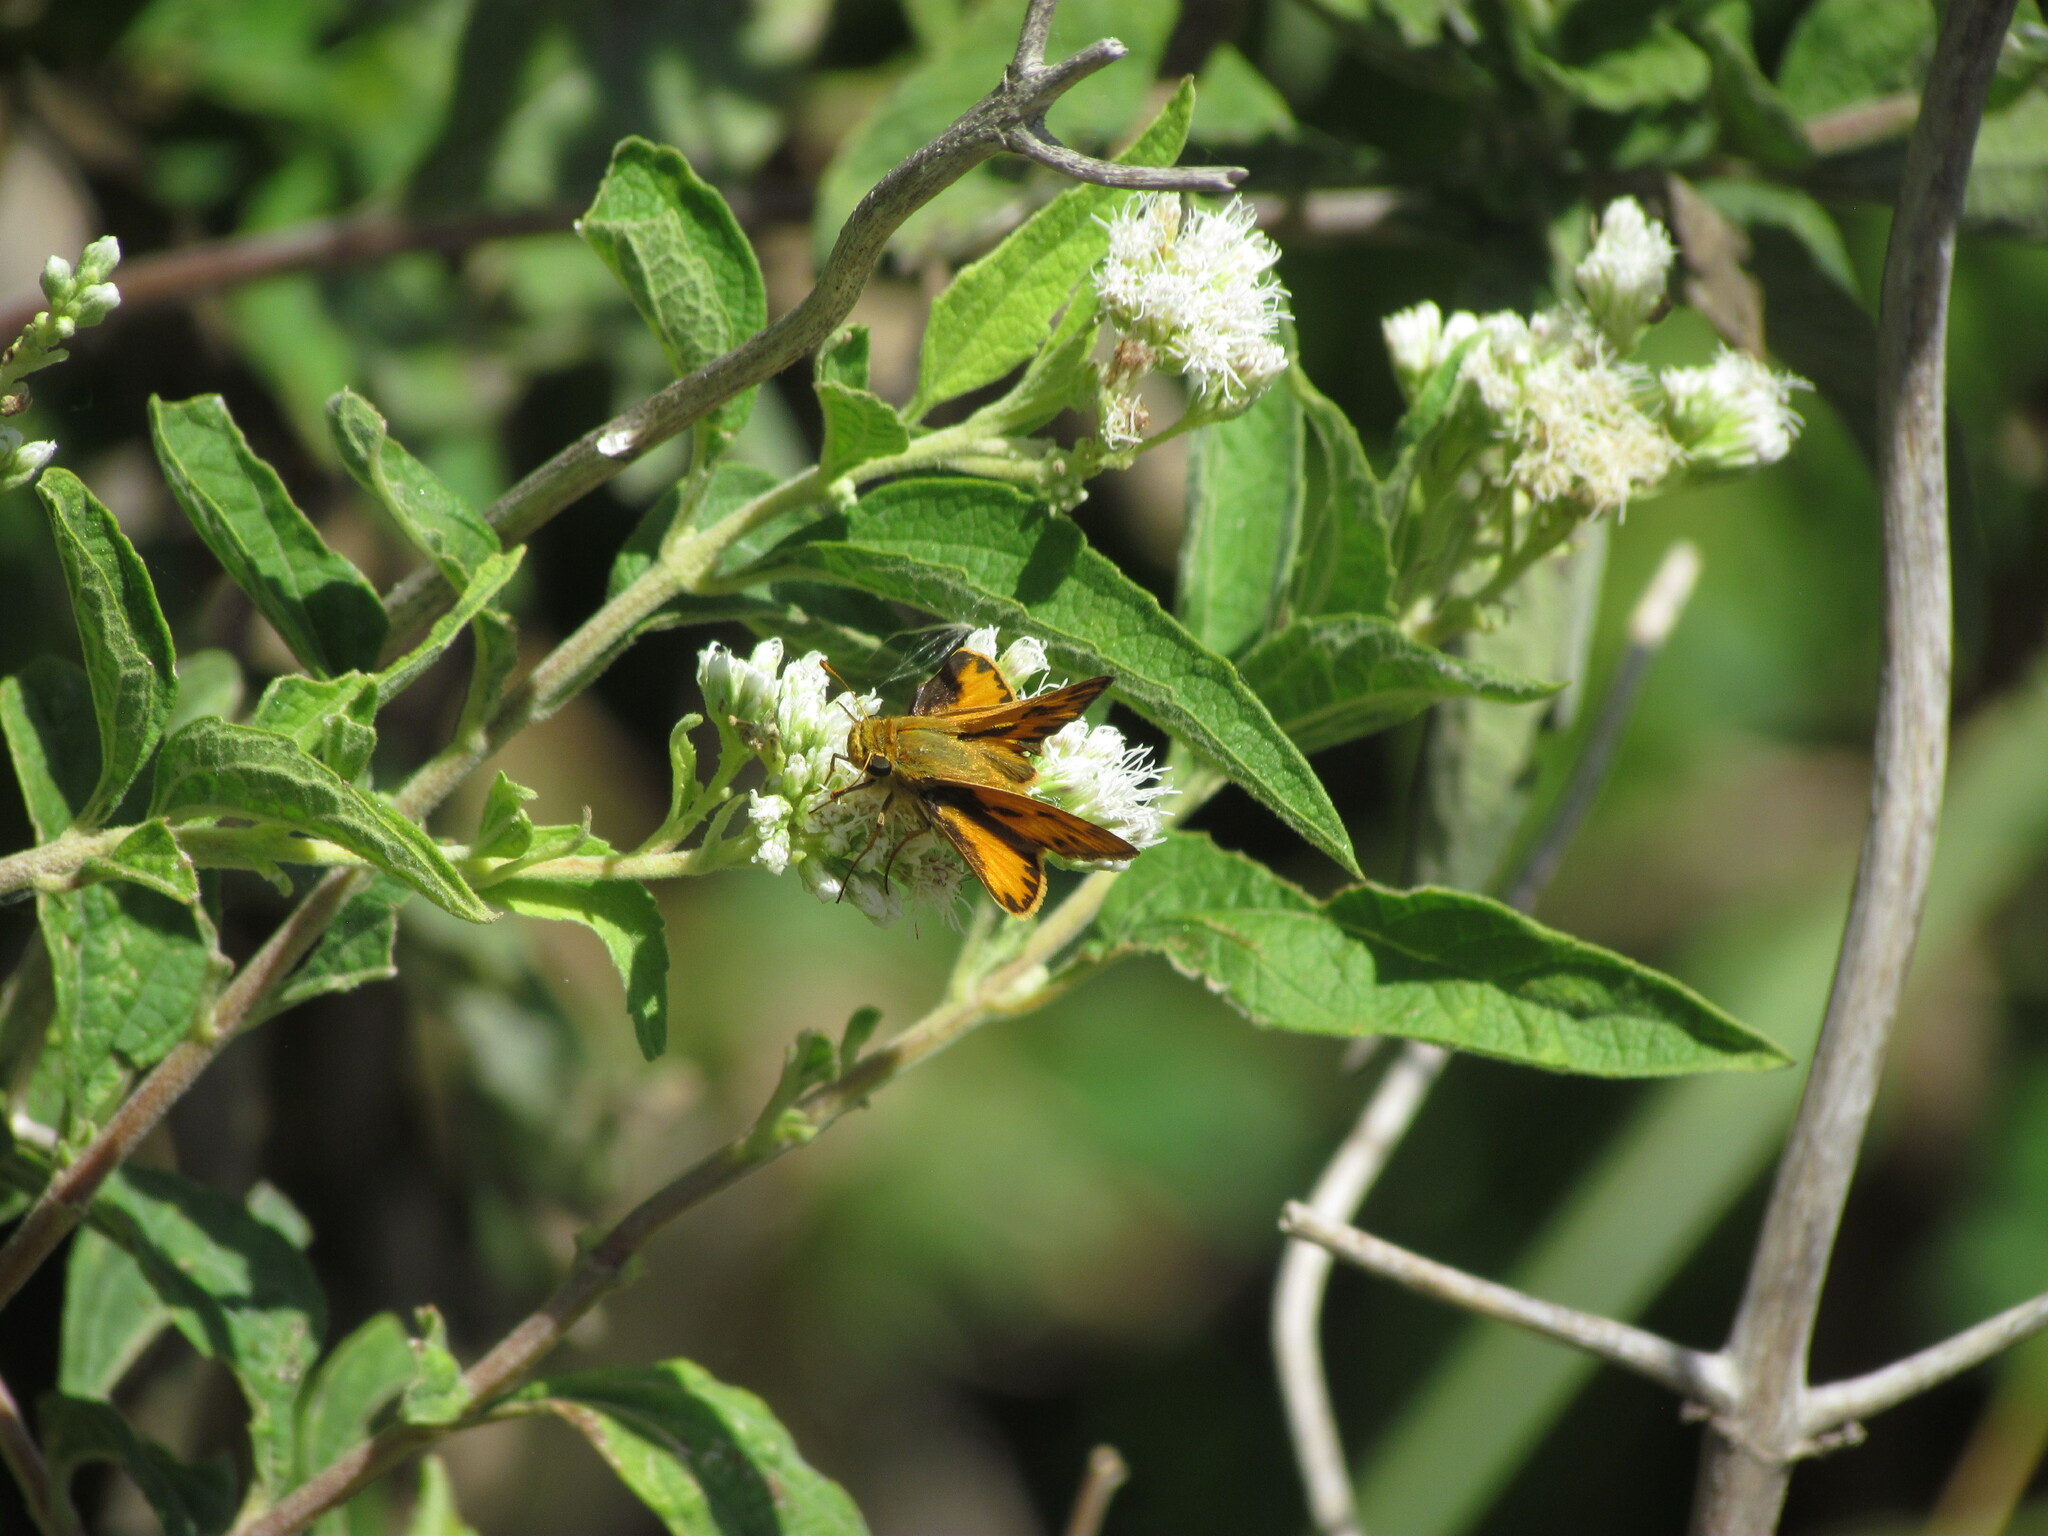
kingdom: Animalia
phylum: Arthropoda
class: Insecta
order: Lepidoptera
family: Hesperiidae
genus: Hylephila
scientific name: Hylephila phyleus
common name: Fiery skipper
